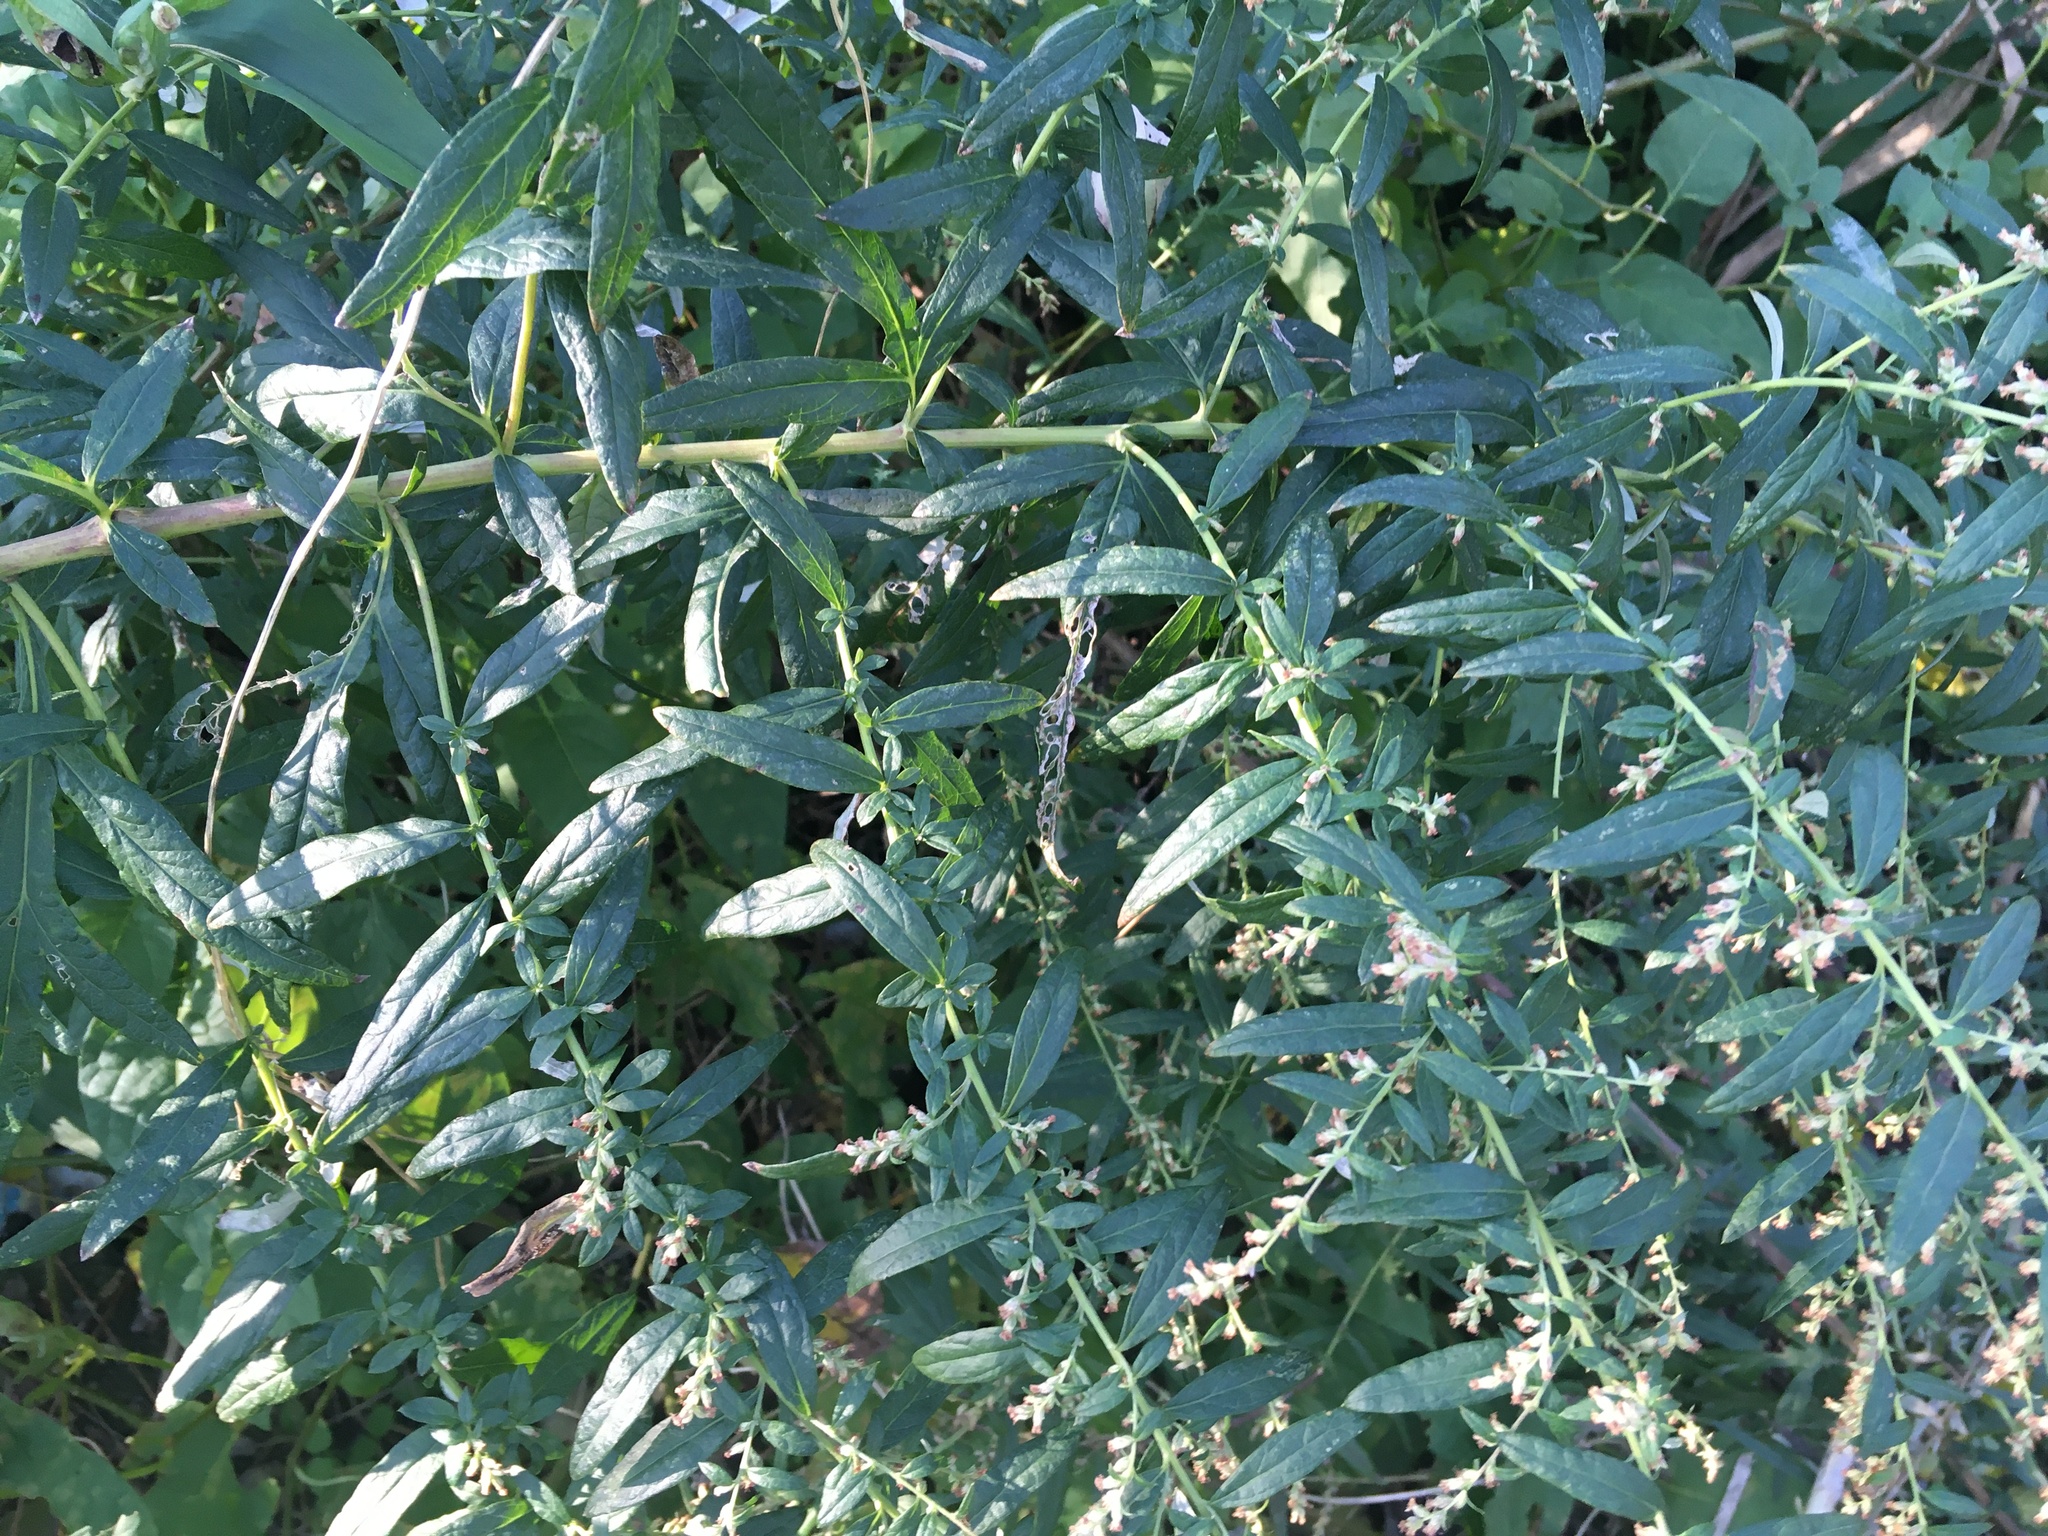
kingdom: Plantae
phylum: Tracheophyta
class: Magnoliopsida
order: Asterales
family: Asteraceae
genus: Artemisia
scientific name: Artemisia vulgaris
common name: Mugwort
